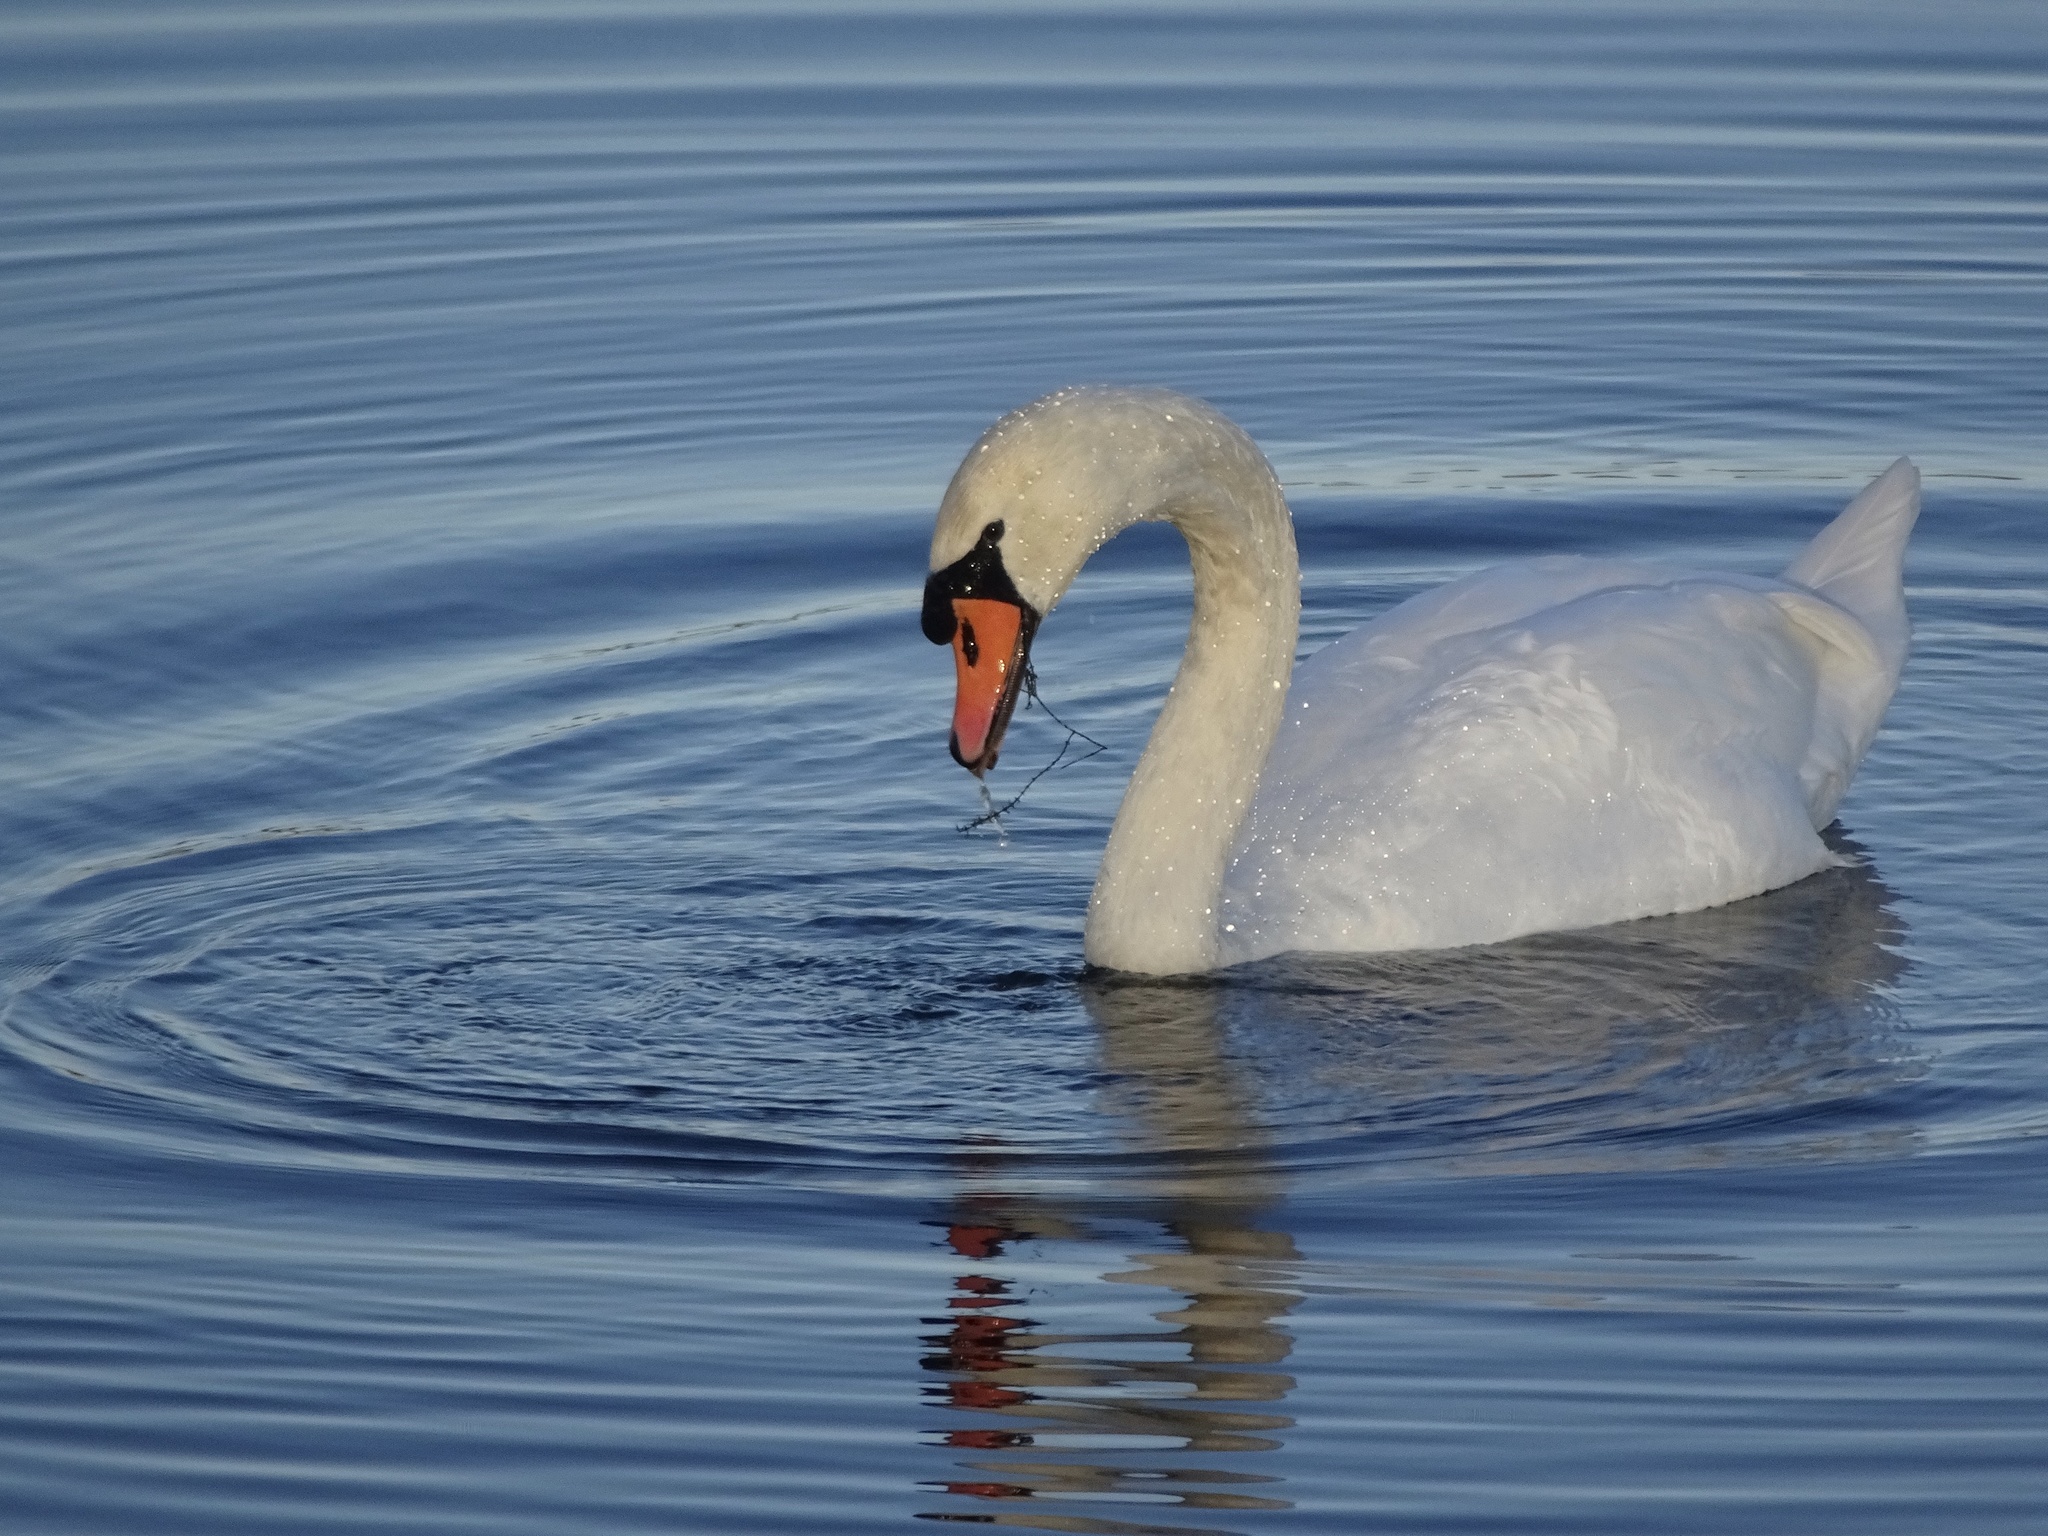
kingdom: Animalia
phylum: Chordata
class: Aves
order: Anseriformes
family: Anatidae
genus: Cygnus
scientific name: Cygnus olor
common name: Mute swan
